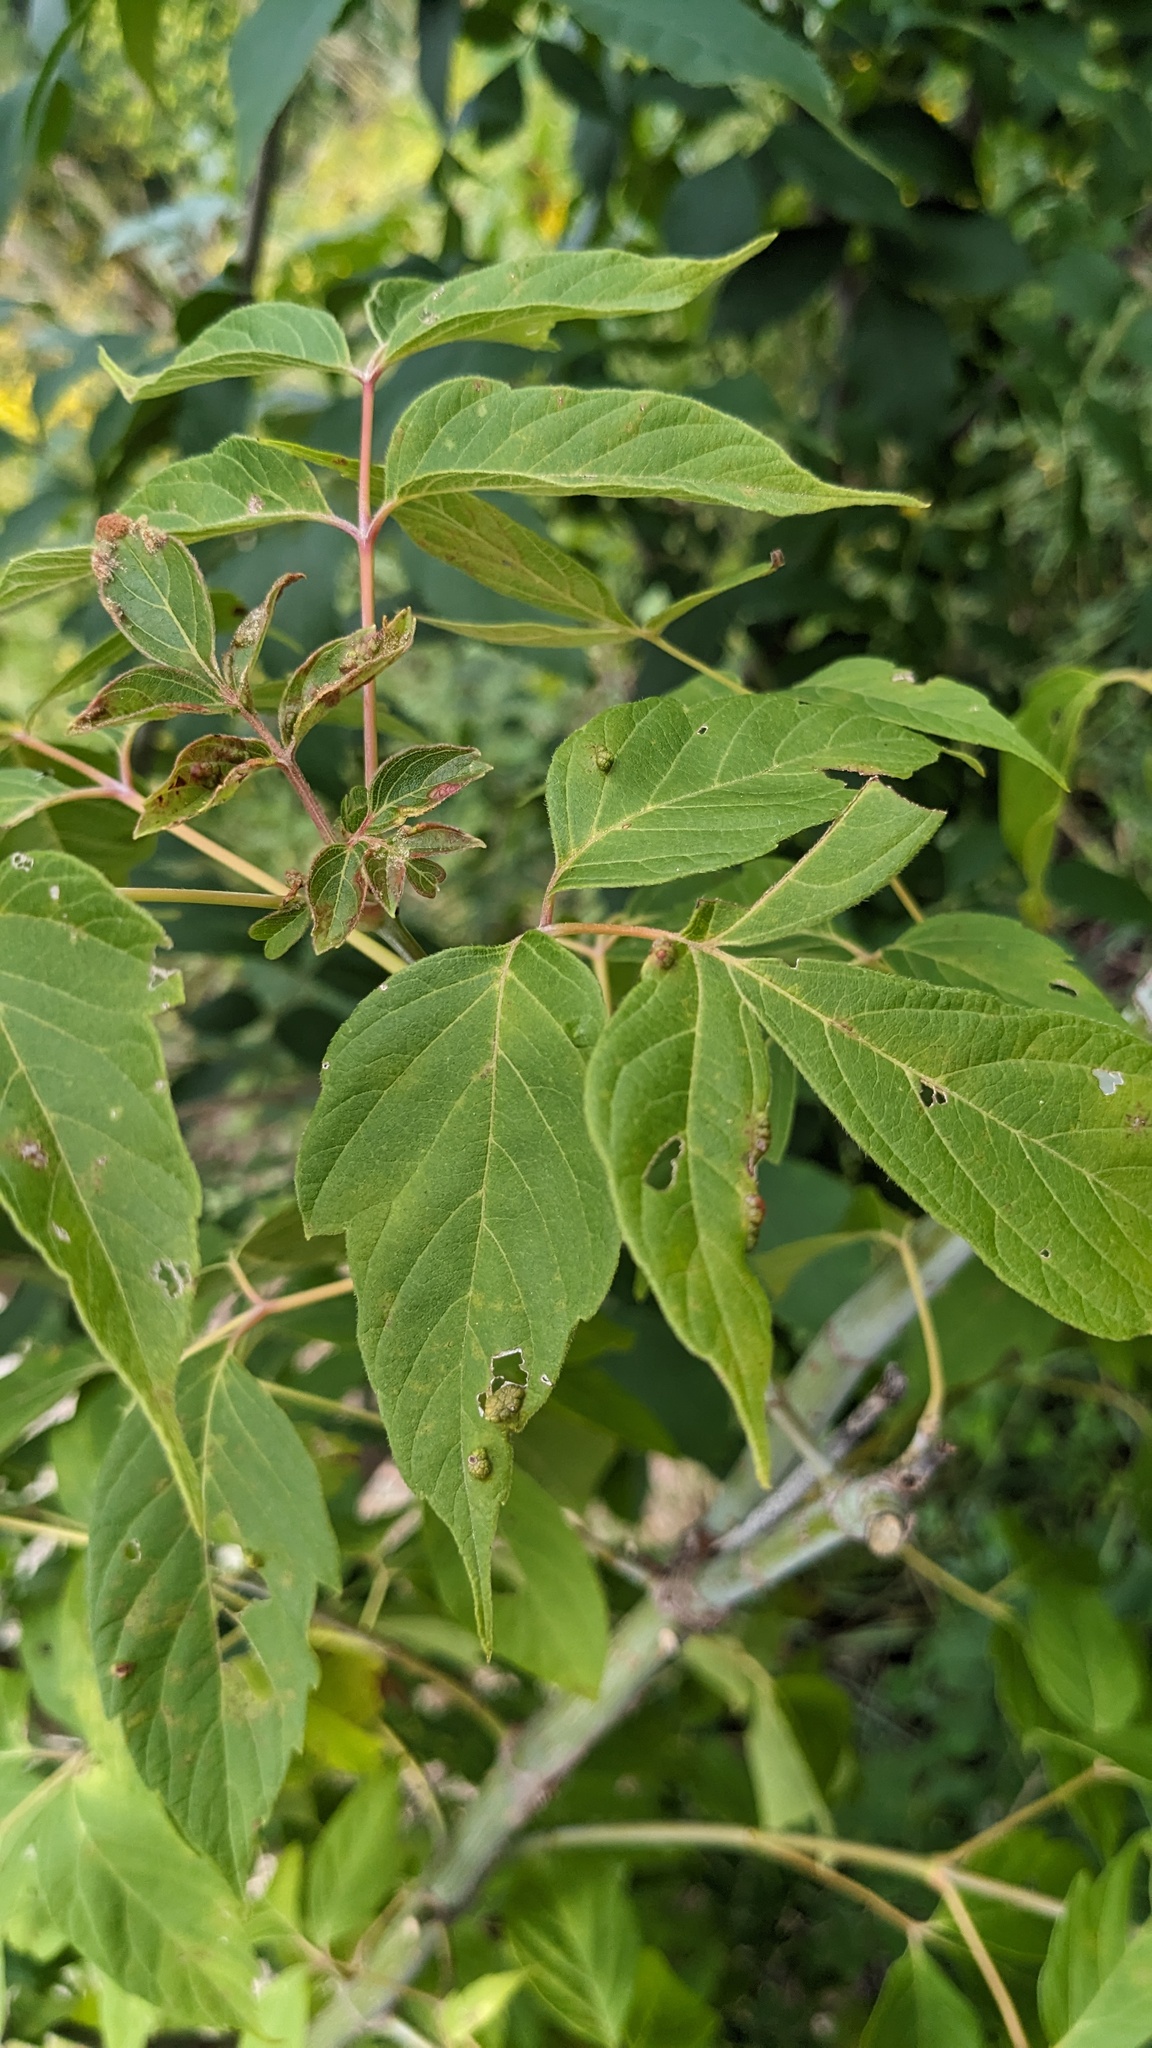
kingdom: Plantae
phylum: Tracheophyta
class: Magnoliopsida
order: Sapindales
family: Sapindaceae
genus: Acer
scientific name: Acer negundo
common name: Ashleaf maple
